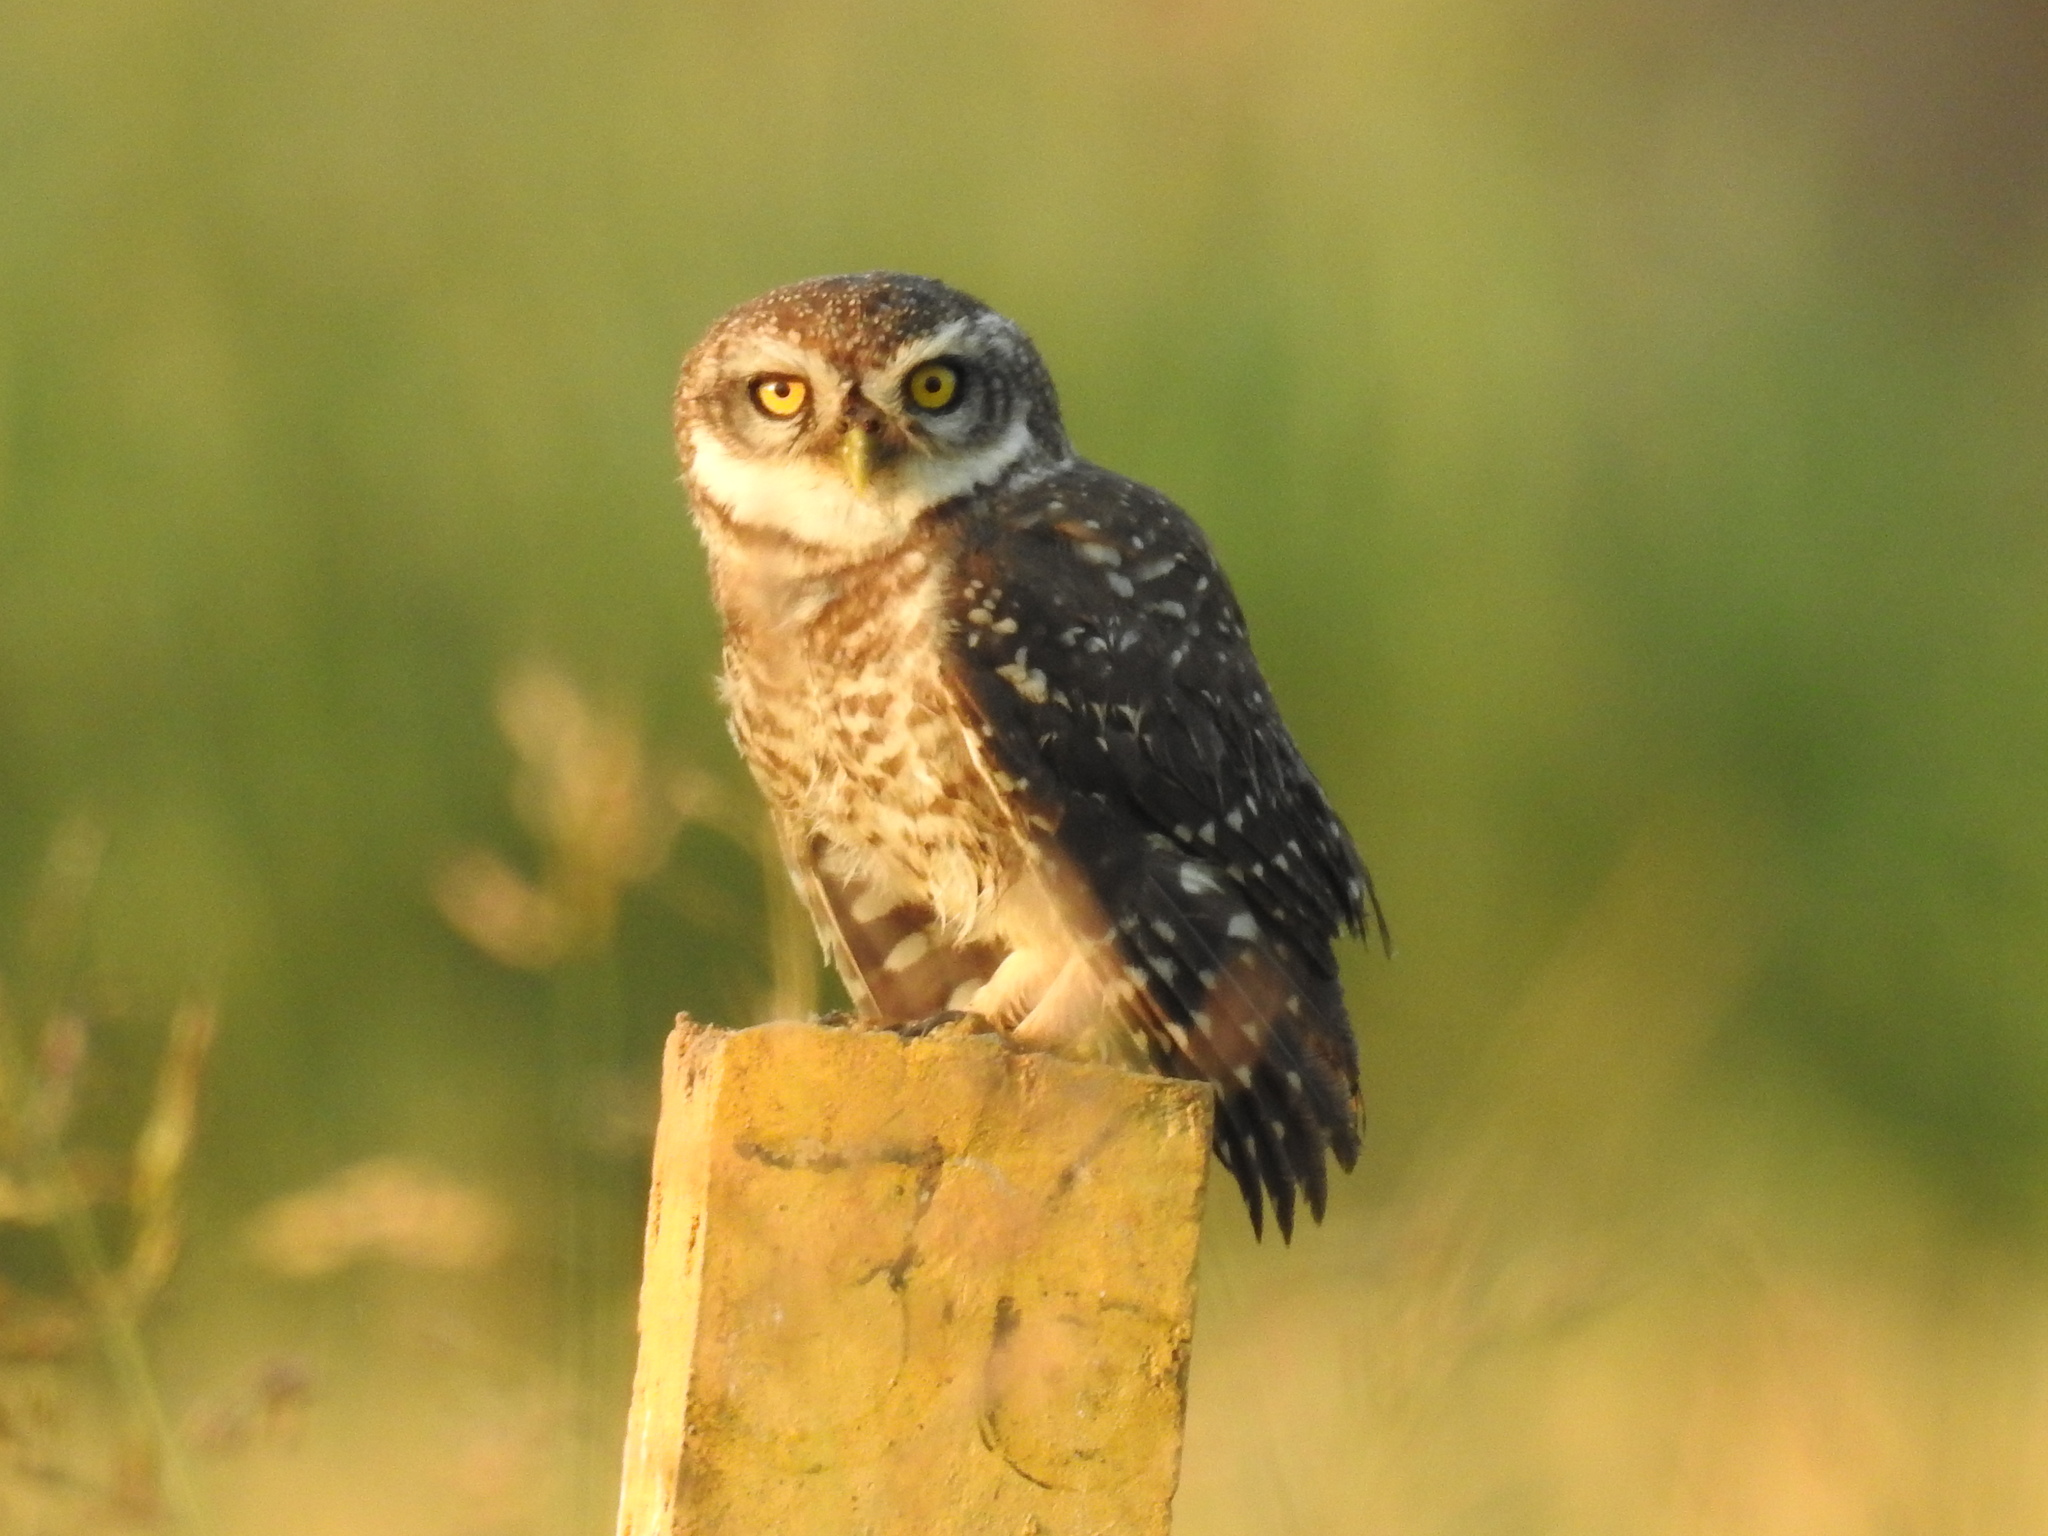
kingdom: Animalia
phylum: Chordata
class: Aves
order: Strigiformes
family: Strigidae
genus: Athene
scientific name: Athene brama
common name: Spotted owlet
